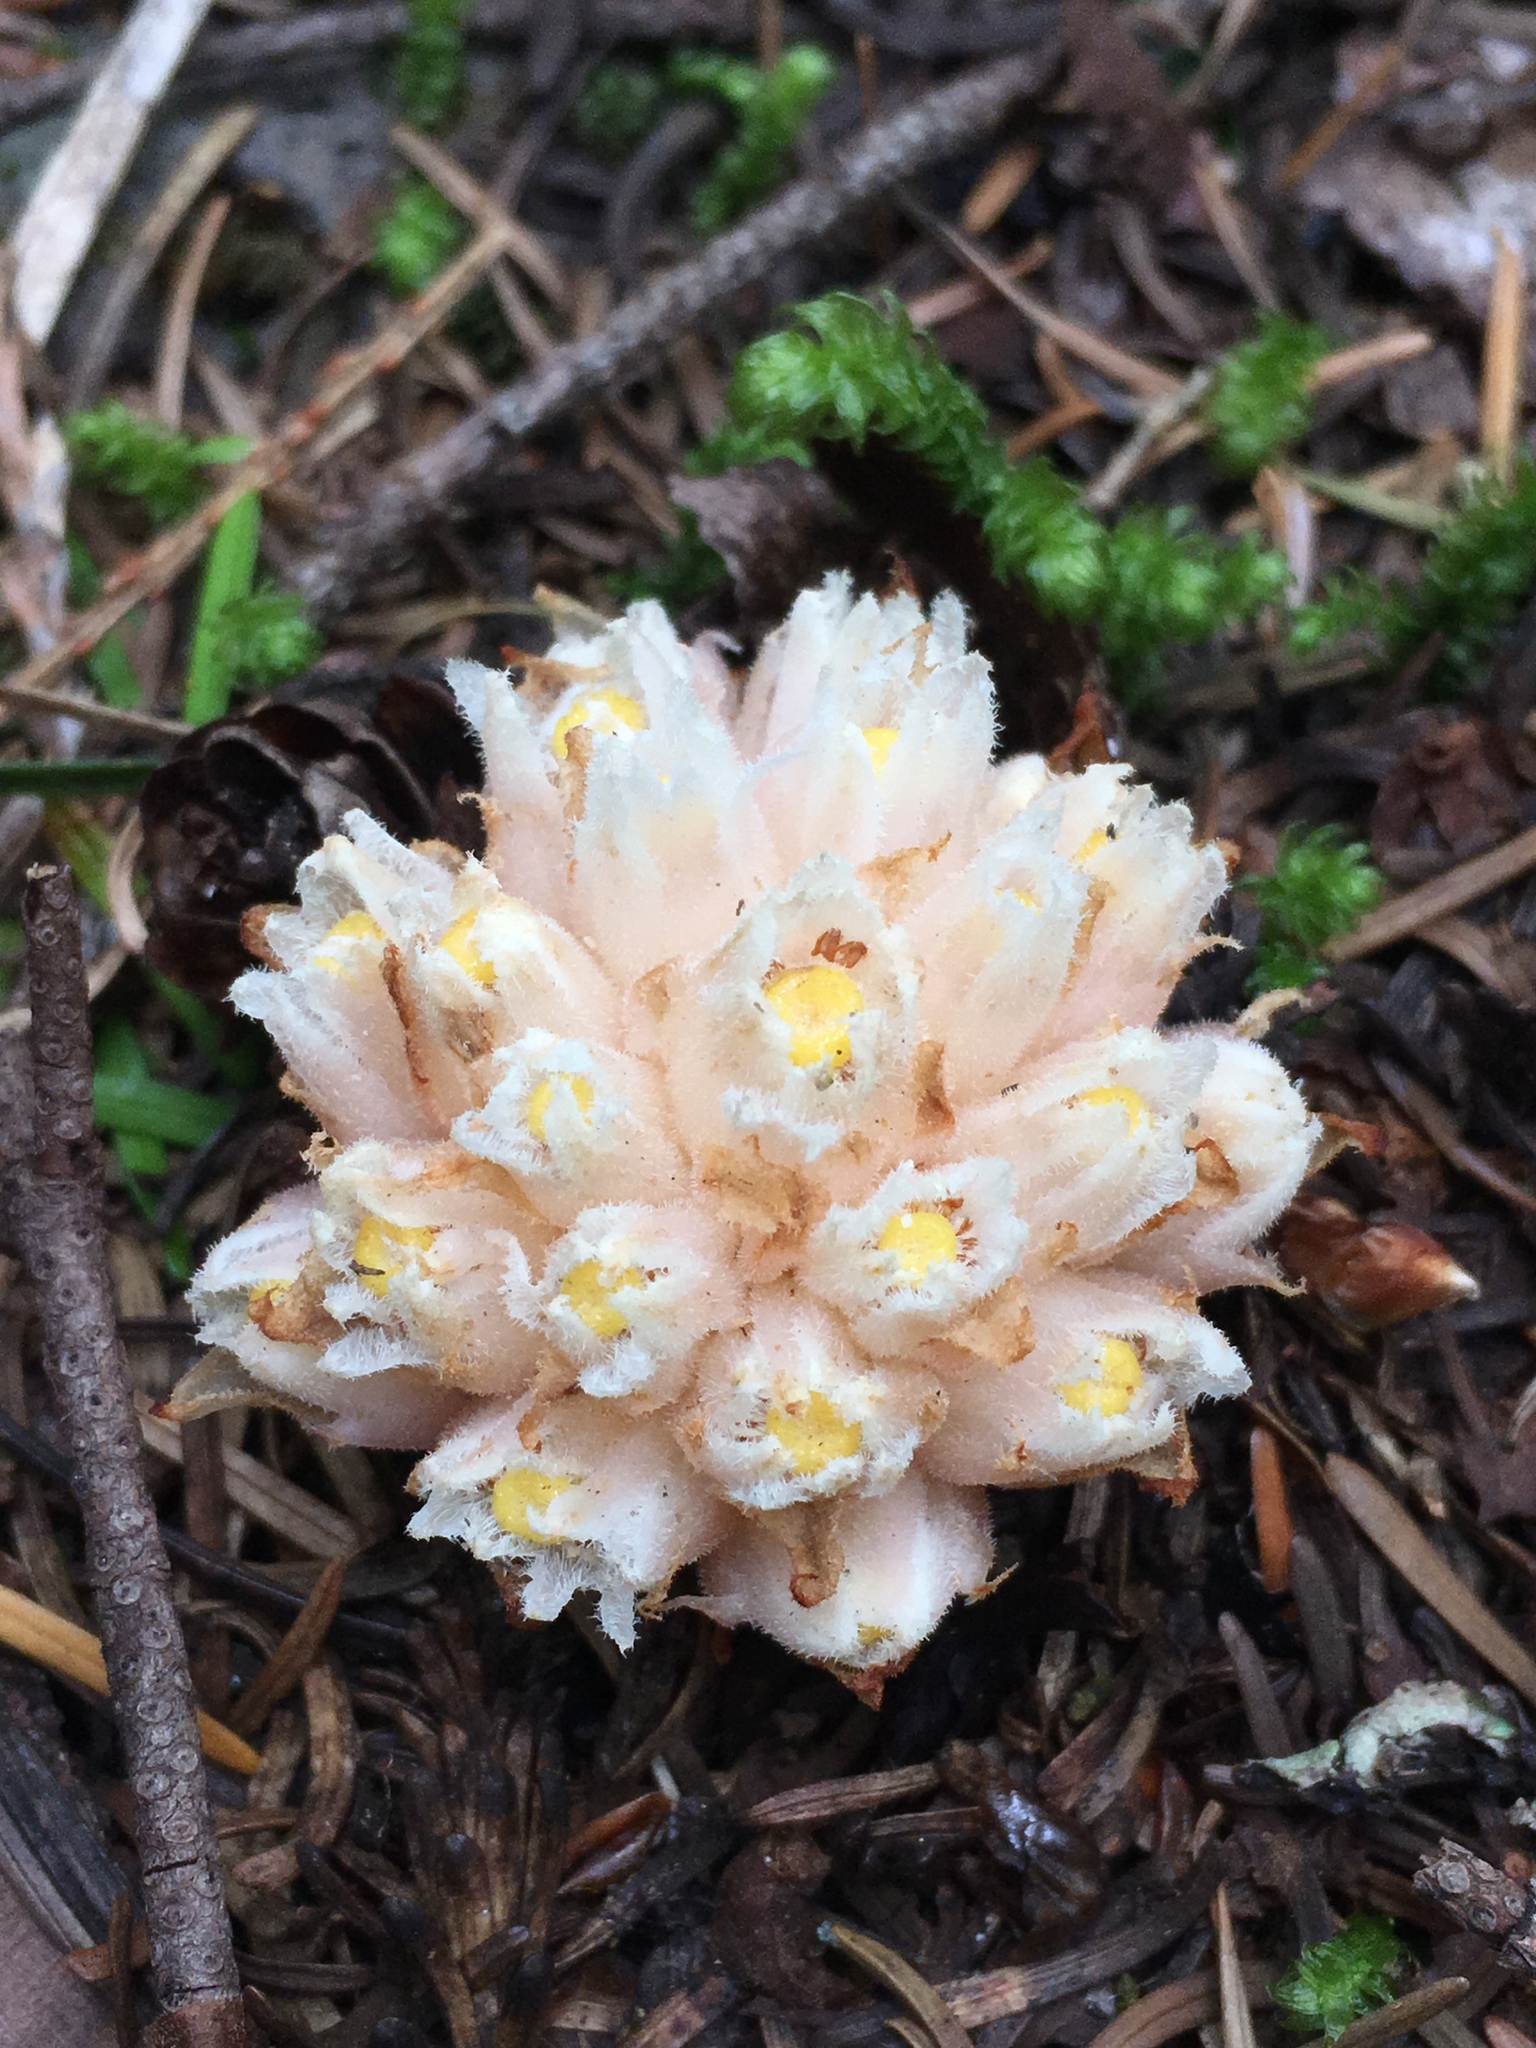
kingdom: Plantae
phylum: Tracheophyta
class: Magnoliopsida
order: Ericales
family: Ericaceae
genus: Hemitomes
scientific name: Hemitomes congestum
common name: Cone plant
